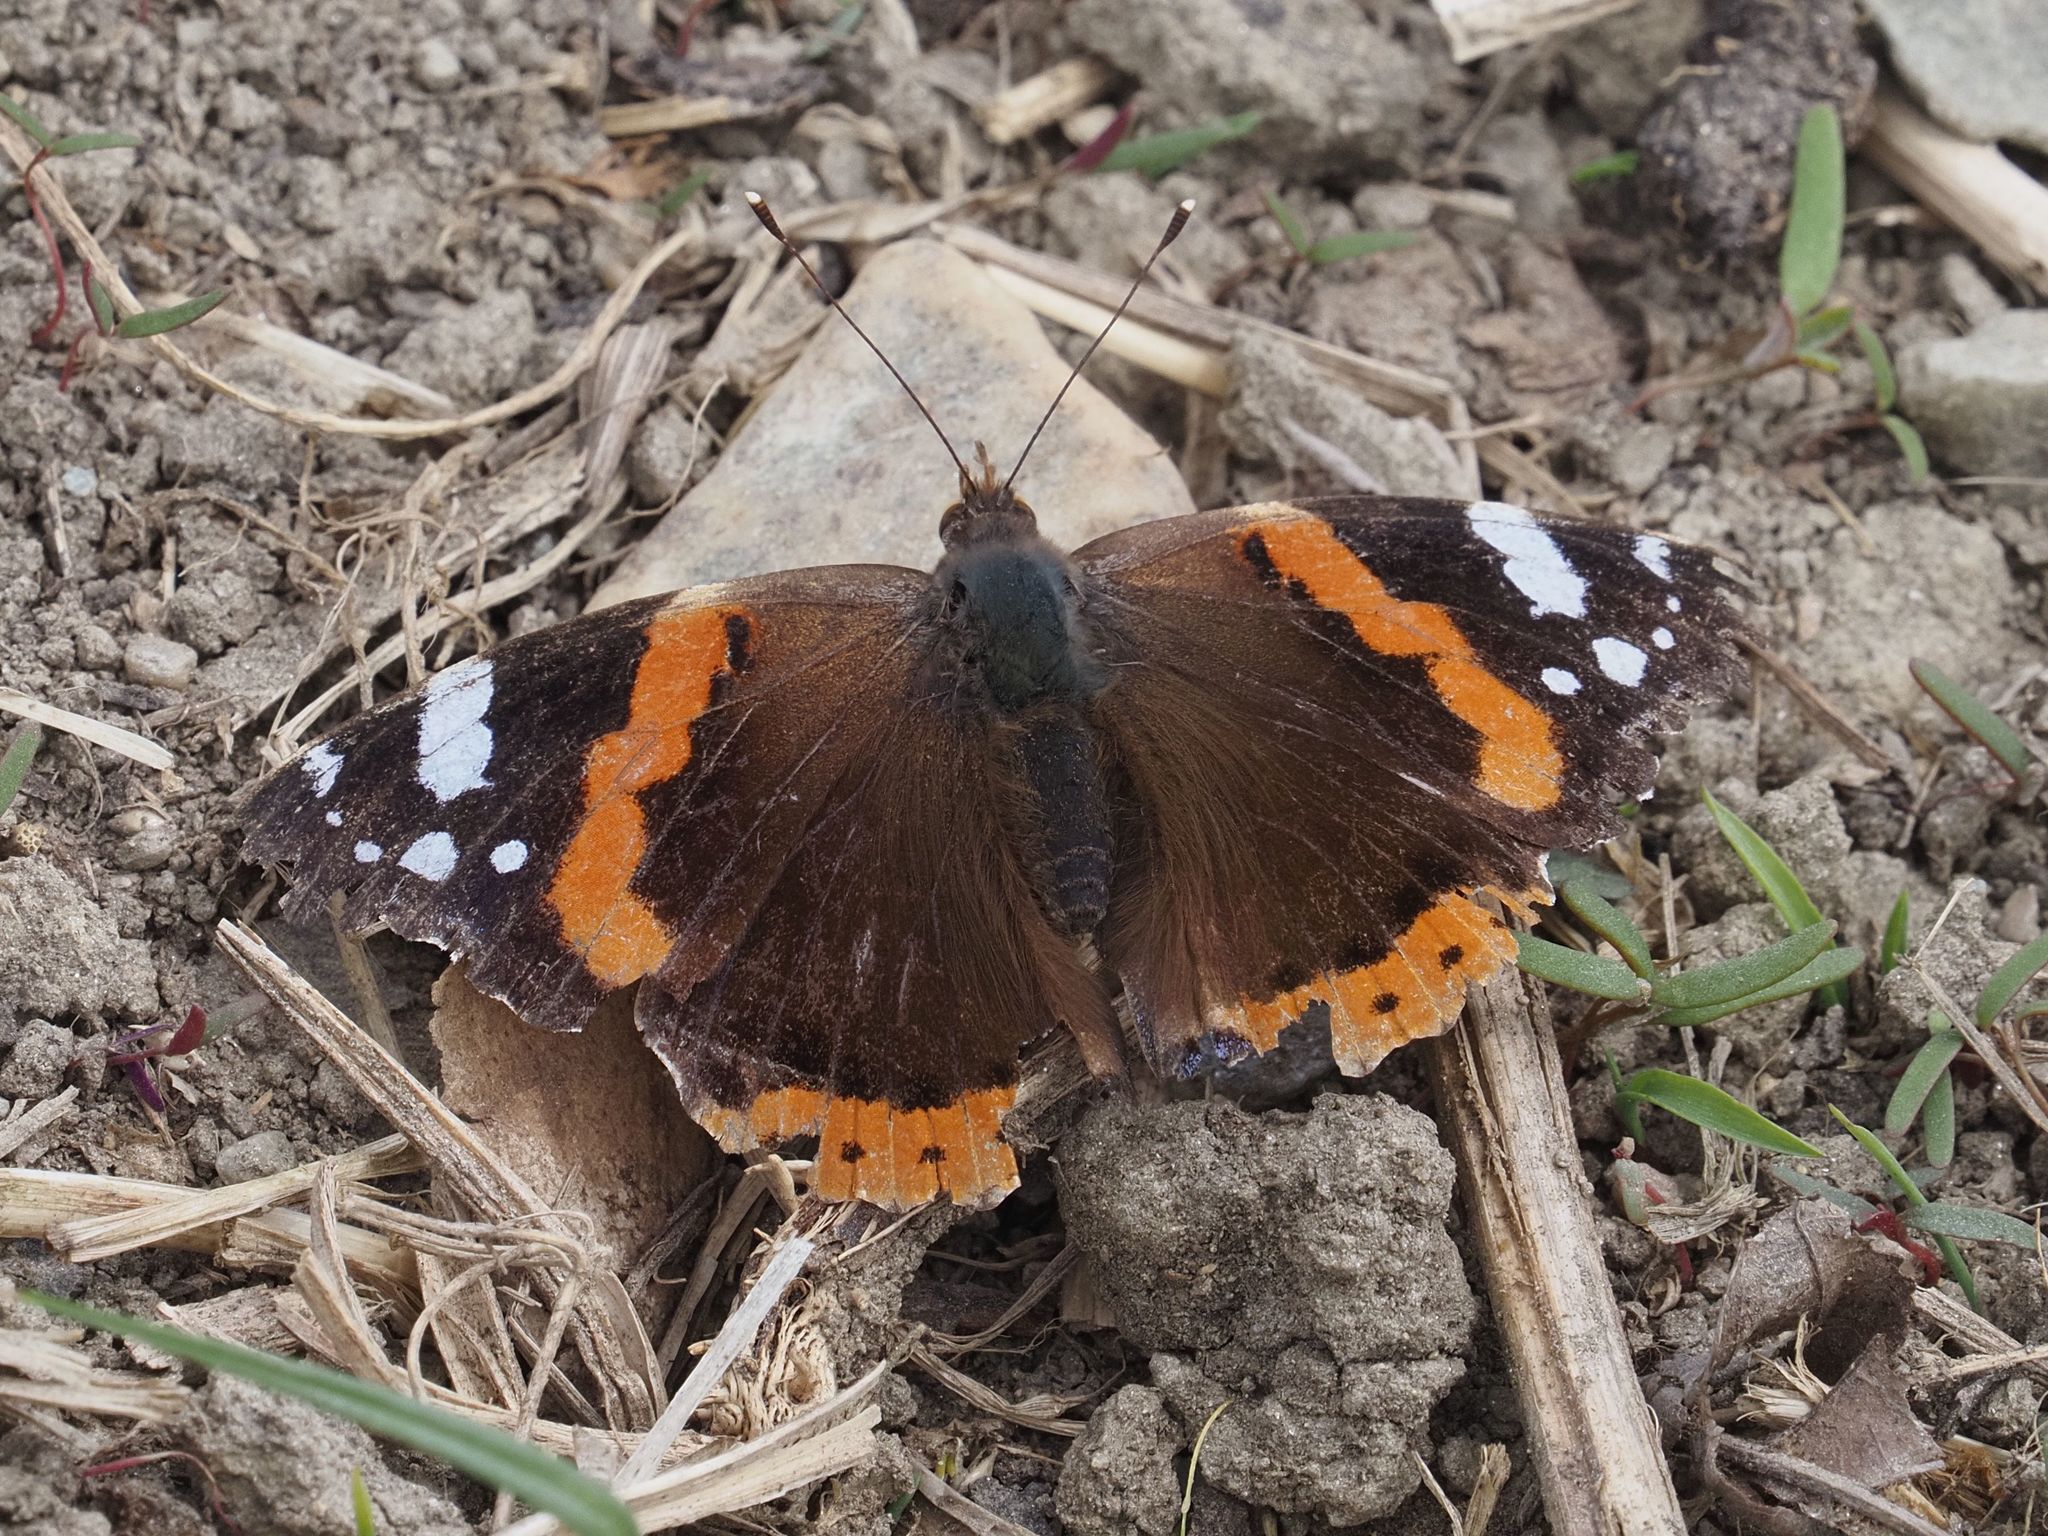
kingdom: Animalia
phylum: Arthropoda
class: Insecta
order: Lepidoptera
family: Nymphalidae
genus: Vanessa
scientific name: Vanessa atalanta
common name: Red admiral
